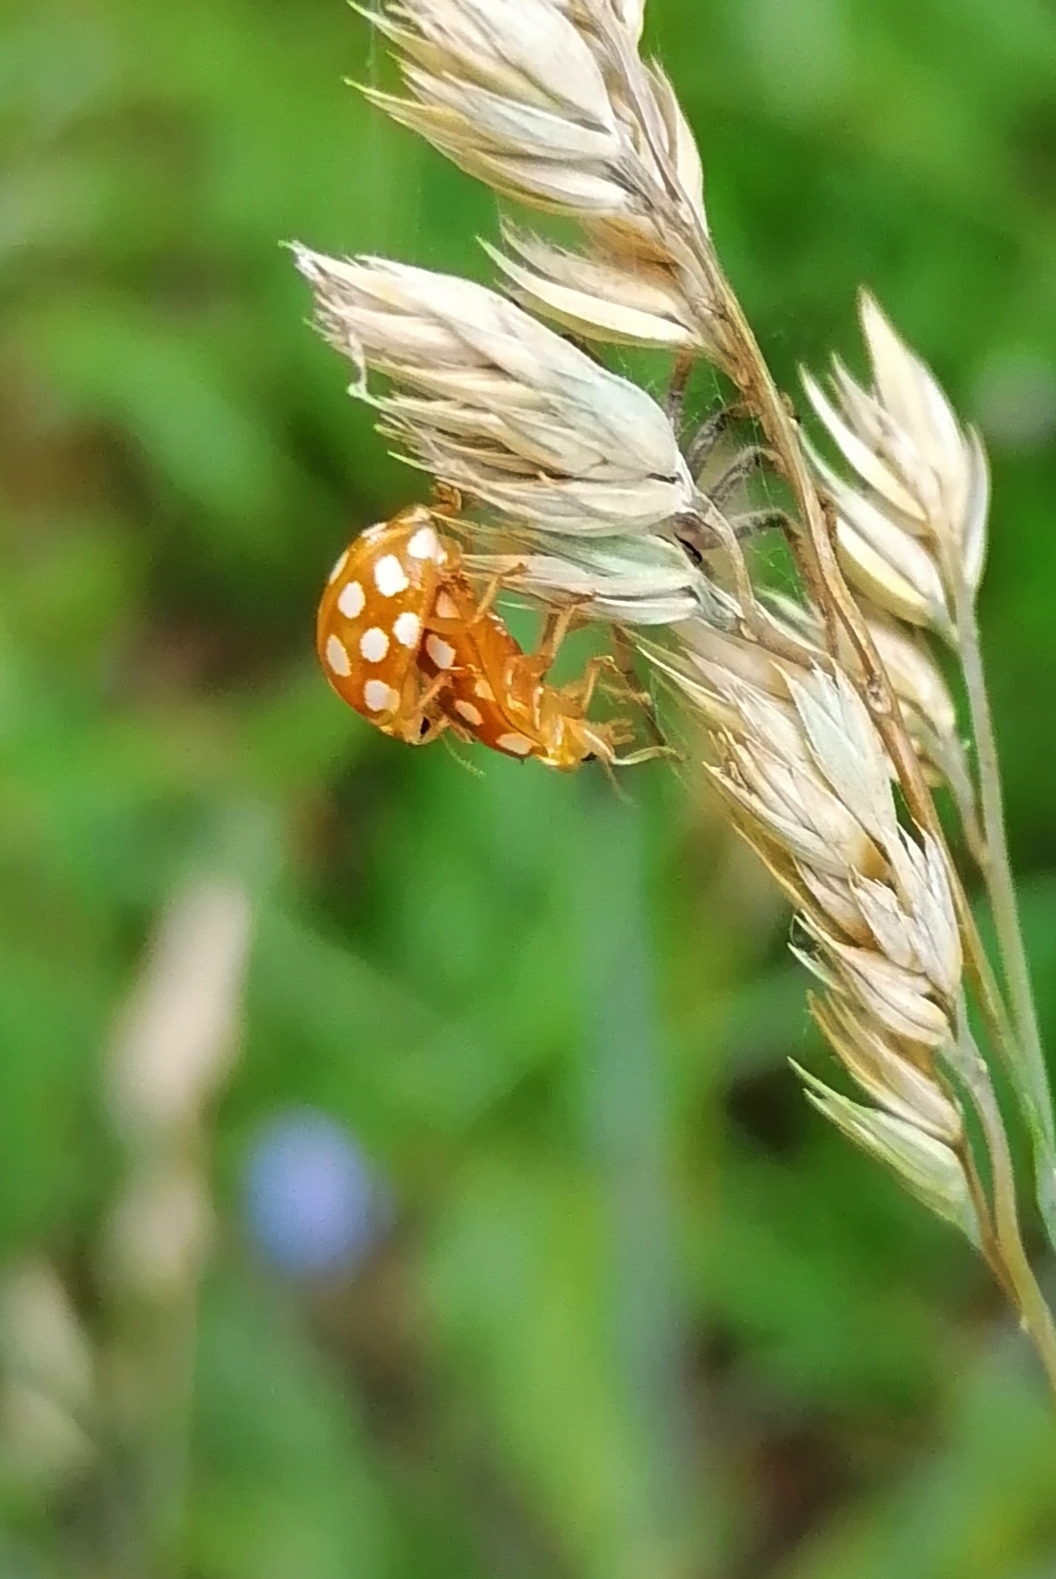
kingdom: Animalia
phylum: Arthropoda
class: Insecta
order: Coleoptera
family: Coccinellidae
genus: Halyzia
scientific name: Halyzia sedecimguttata
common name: Orange ladybird
